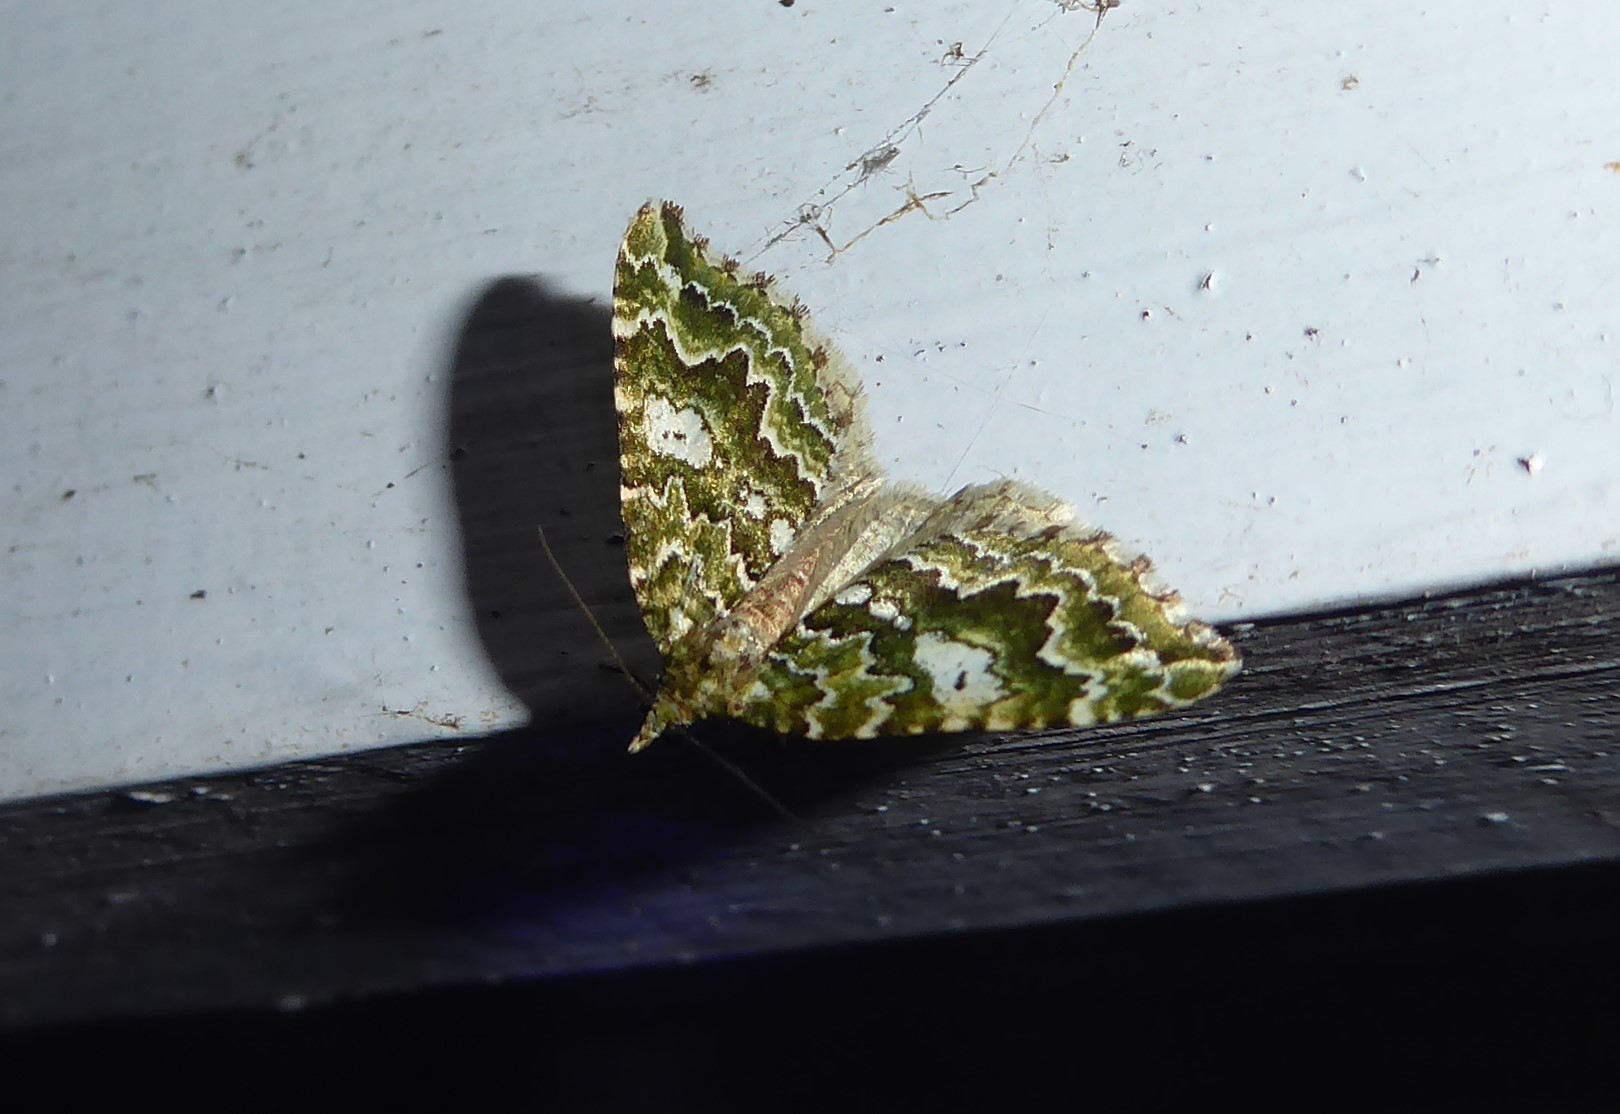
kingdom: Animalia
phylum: Arthropoda
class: Insecta
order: Lepidoptera
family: Geometridae
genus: Asaphodes
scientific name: Asaphodes beata
